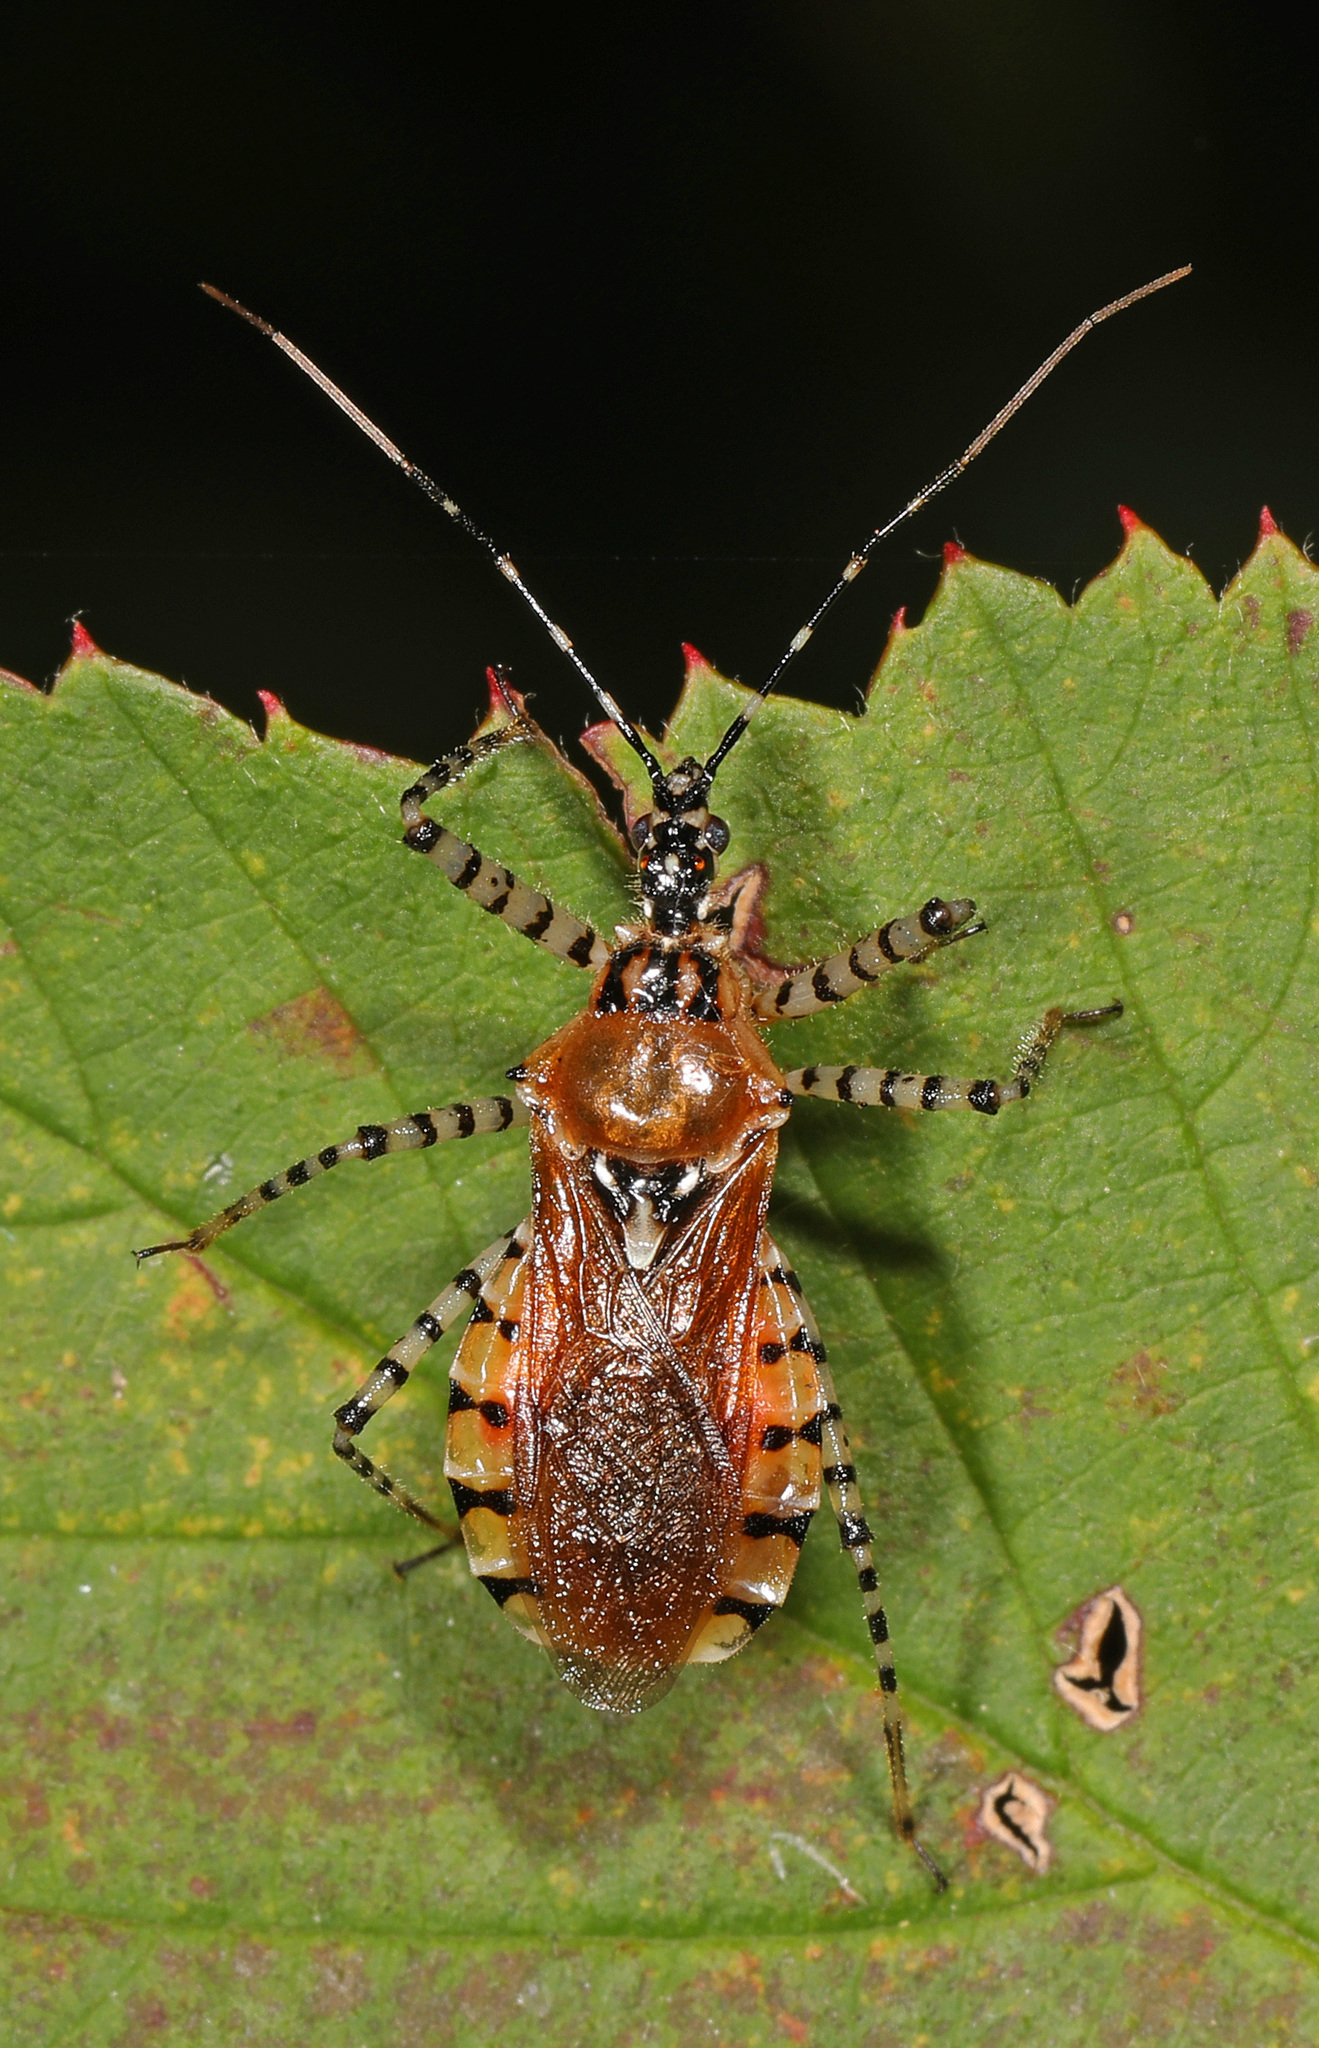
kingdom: Animalia
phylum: Arthropoda
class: Insecta
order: Hemiptera
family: Reduviidae
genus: Pselliopus
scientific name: Pselliopus cinctus
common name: Ringed assassin bug
